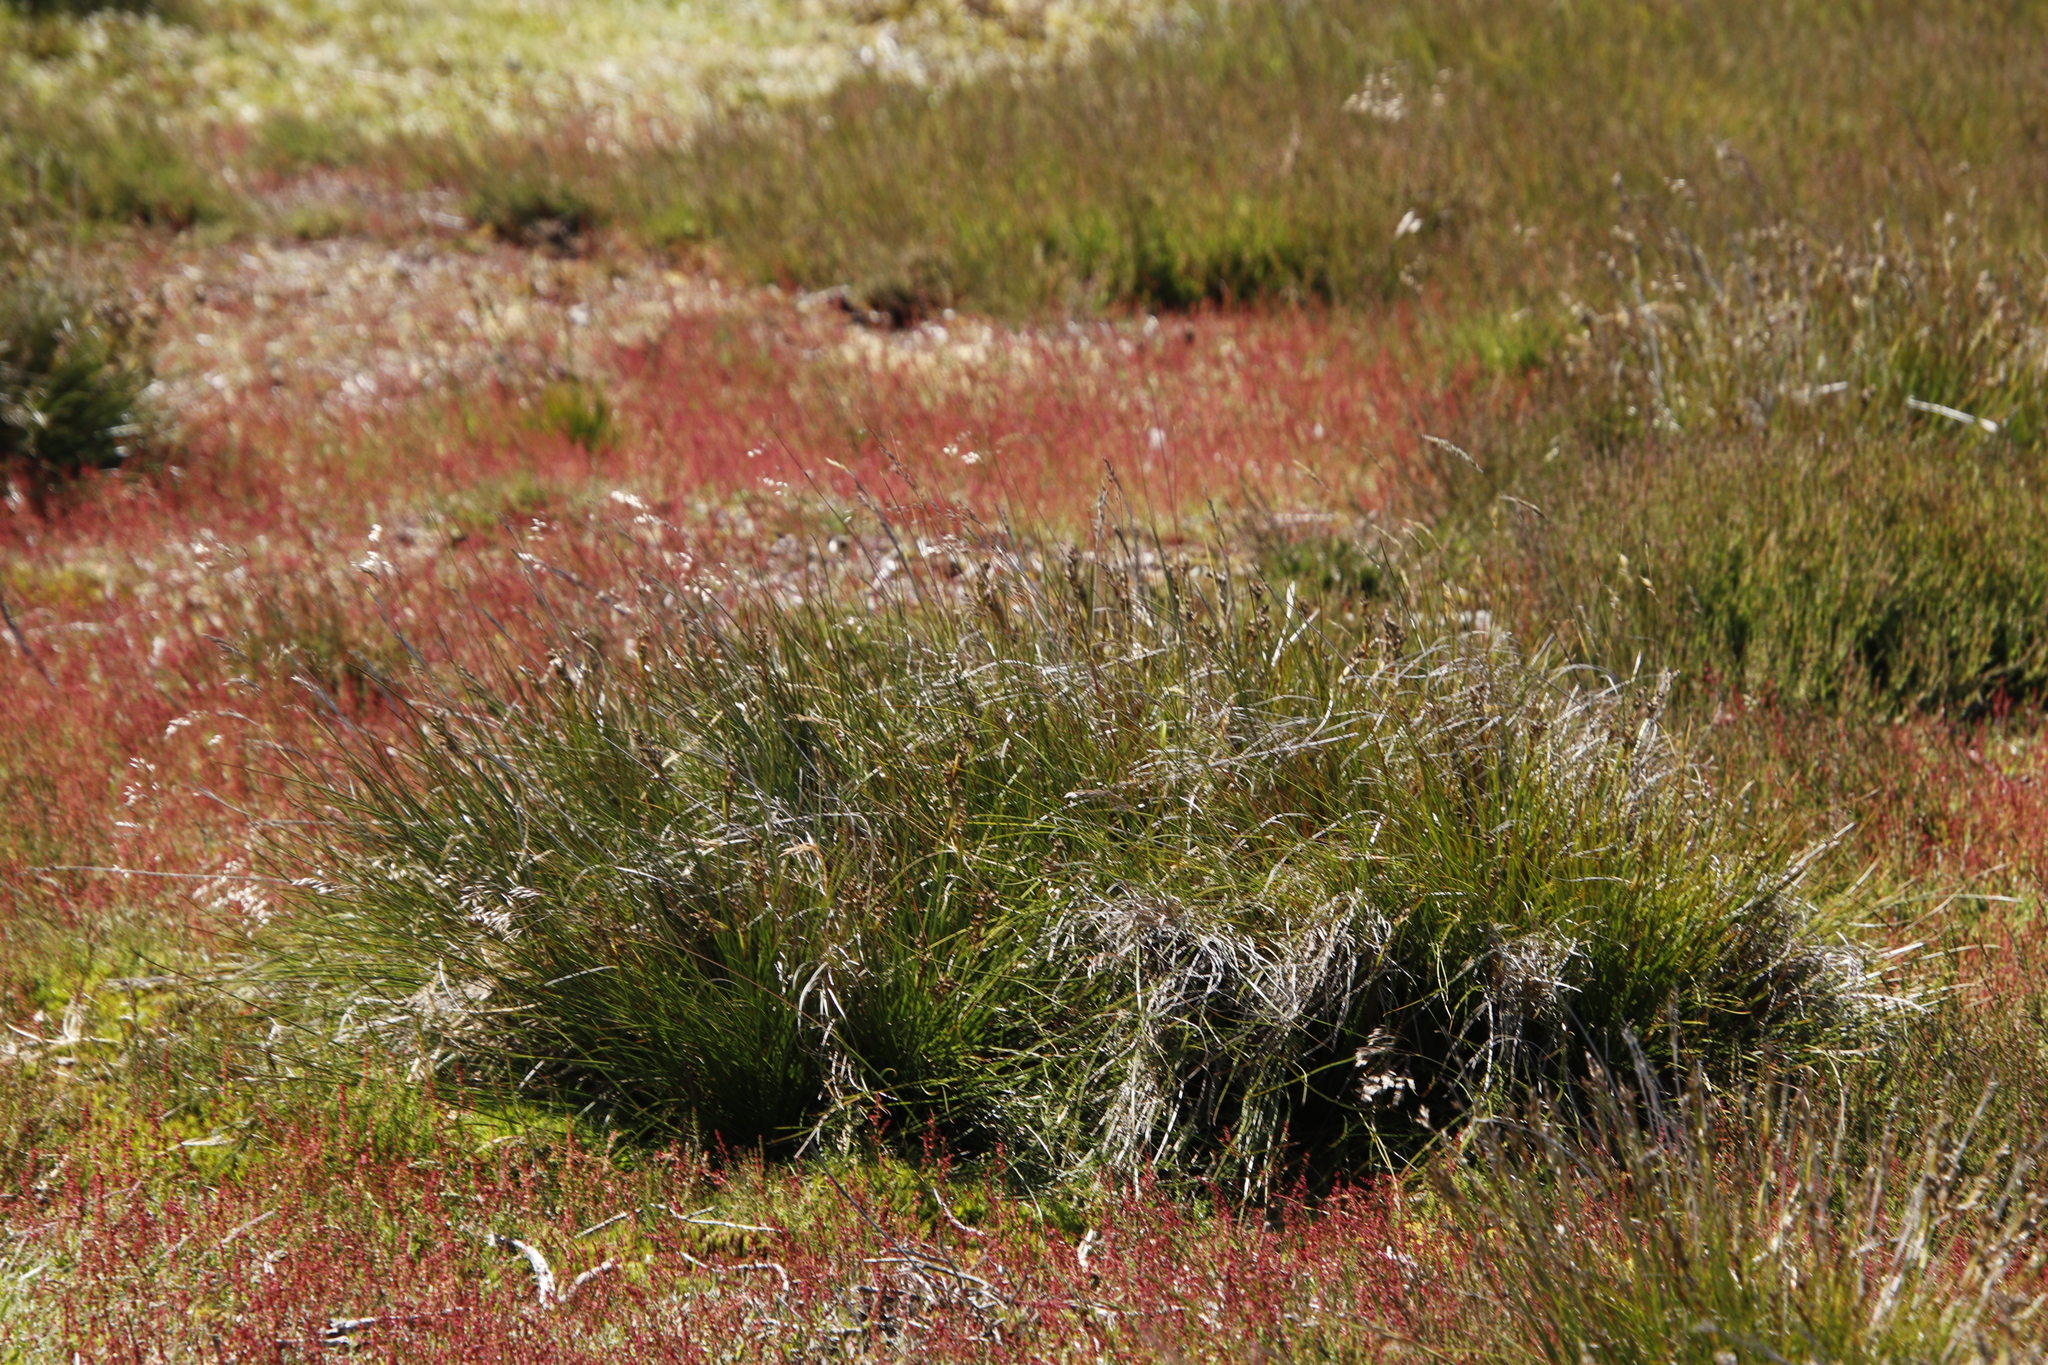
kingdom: Plantae
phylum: Tracheophyta
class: Magnoliopsida
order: Caryophyllales
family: Polygonaceae
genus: Rumex
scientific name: Rumex acetosella
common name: Common sheep sorrel
